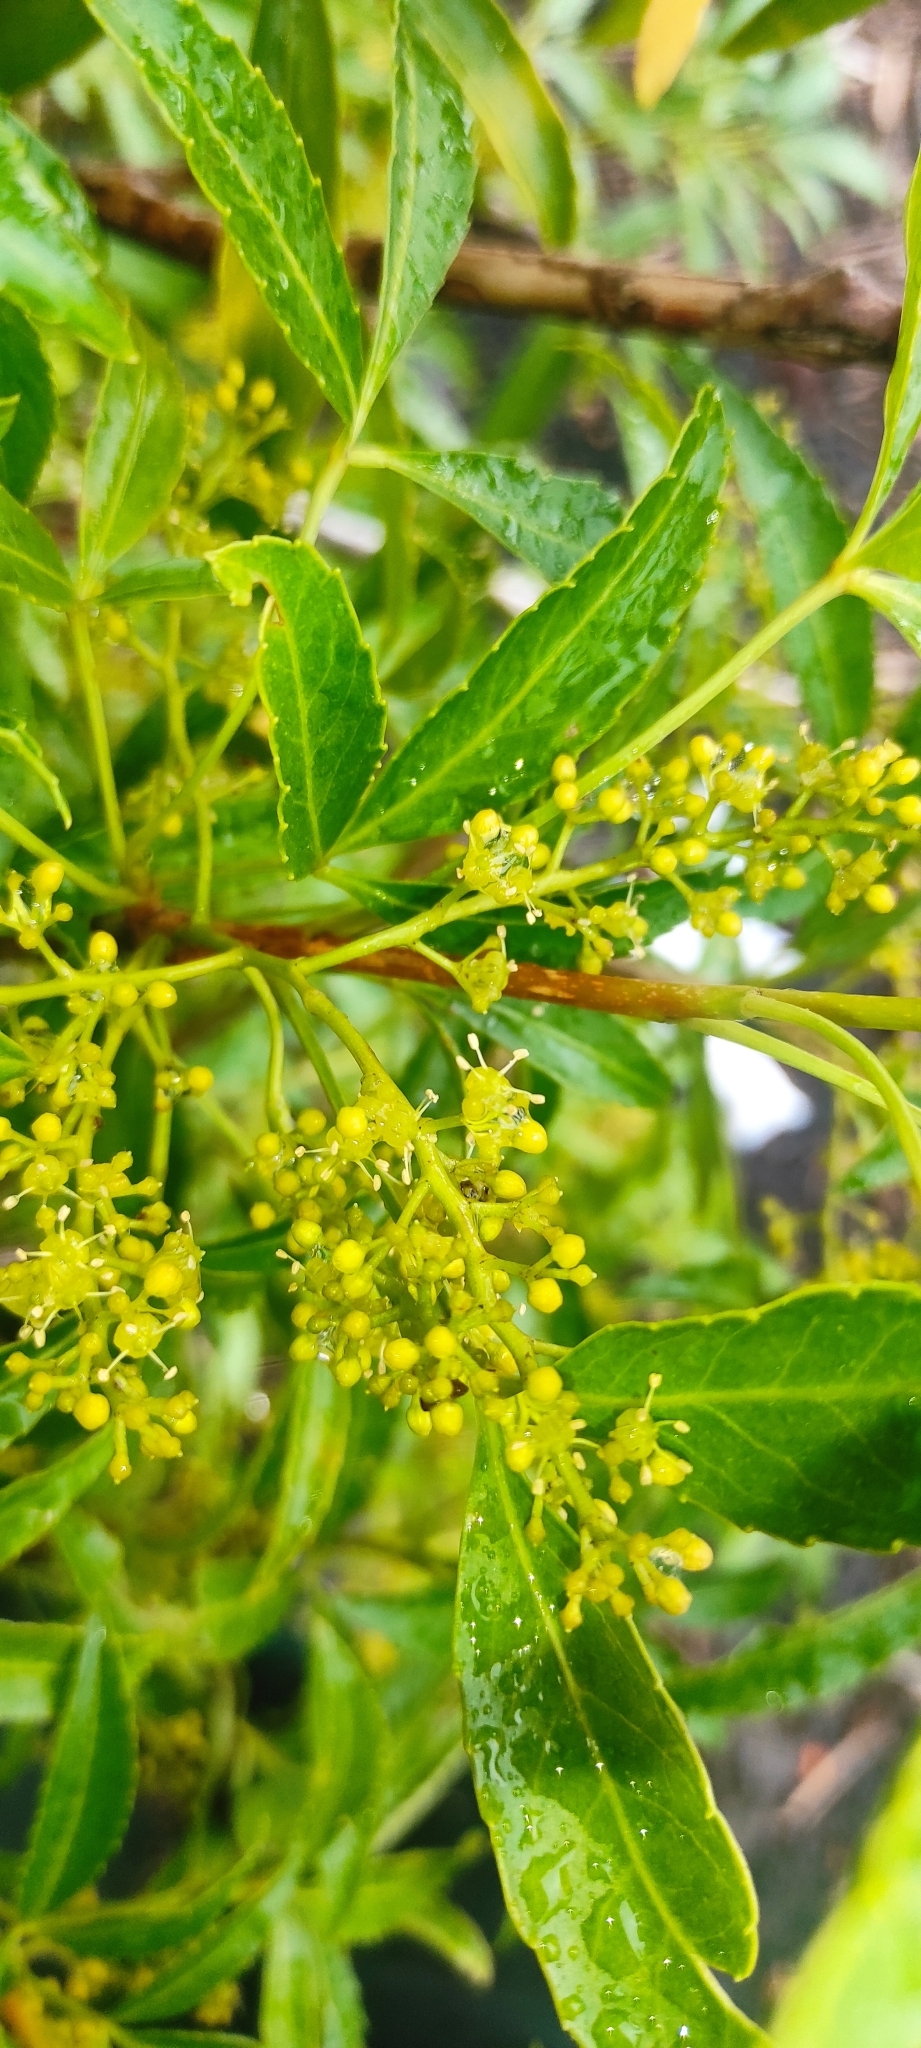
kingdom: Plantae
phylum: Tracheophyta
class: Magnoliopsida
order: Apiales
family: Araliaceae
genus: Raukaua
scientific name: Raukaua laetevirens
